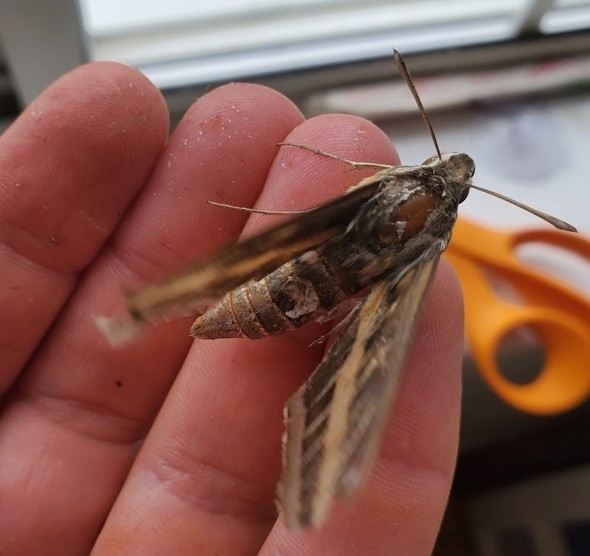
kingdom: Animalia
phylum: Arthropoda
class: Insecta
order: Lepidoptera
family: Sphingidae
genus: Hyles
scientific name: Hyles lineata
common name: White-lined sphinx
